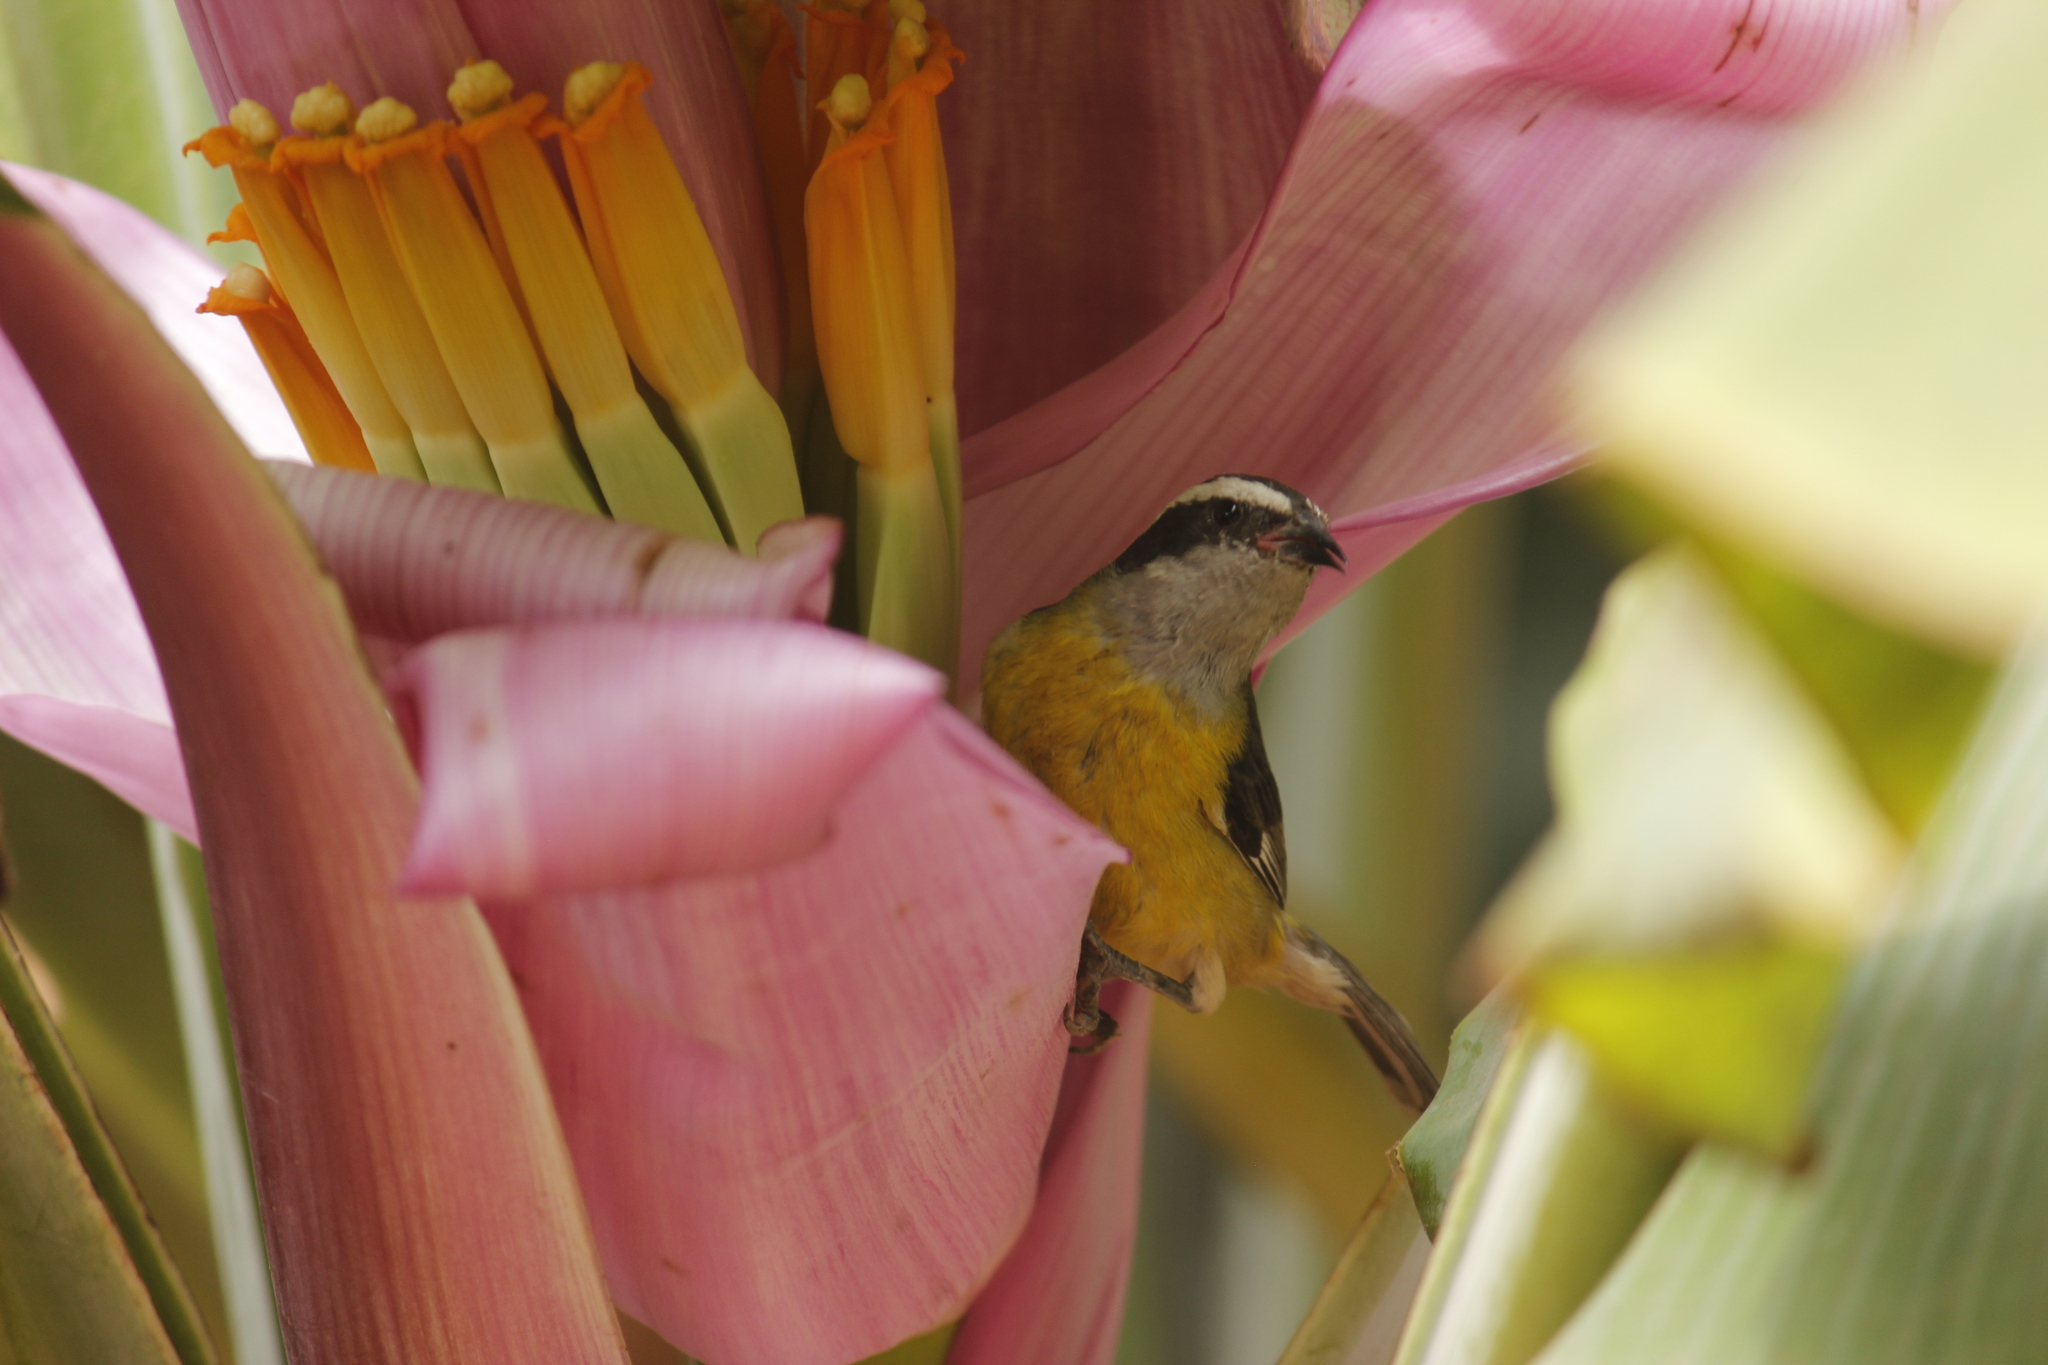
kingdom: Animalia
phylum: Chordata
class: Aves
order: Passeriformes
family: Thraupidae
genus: Coereba
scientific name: Coereba flaveola
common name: Bananaquit
